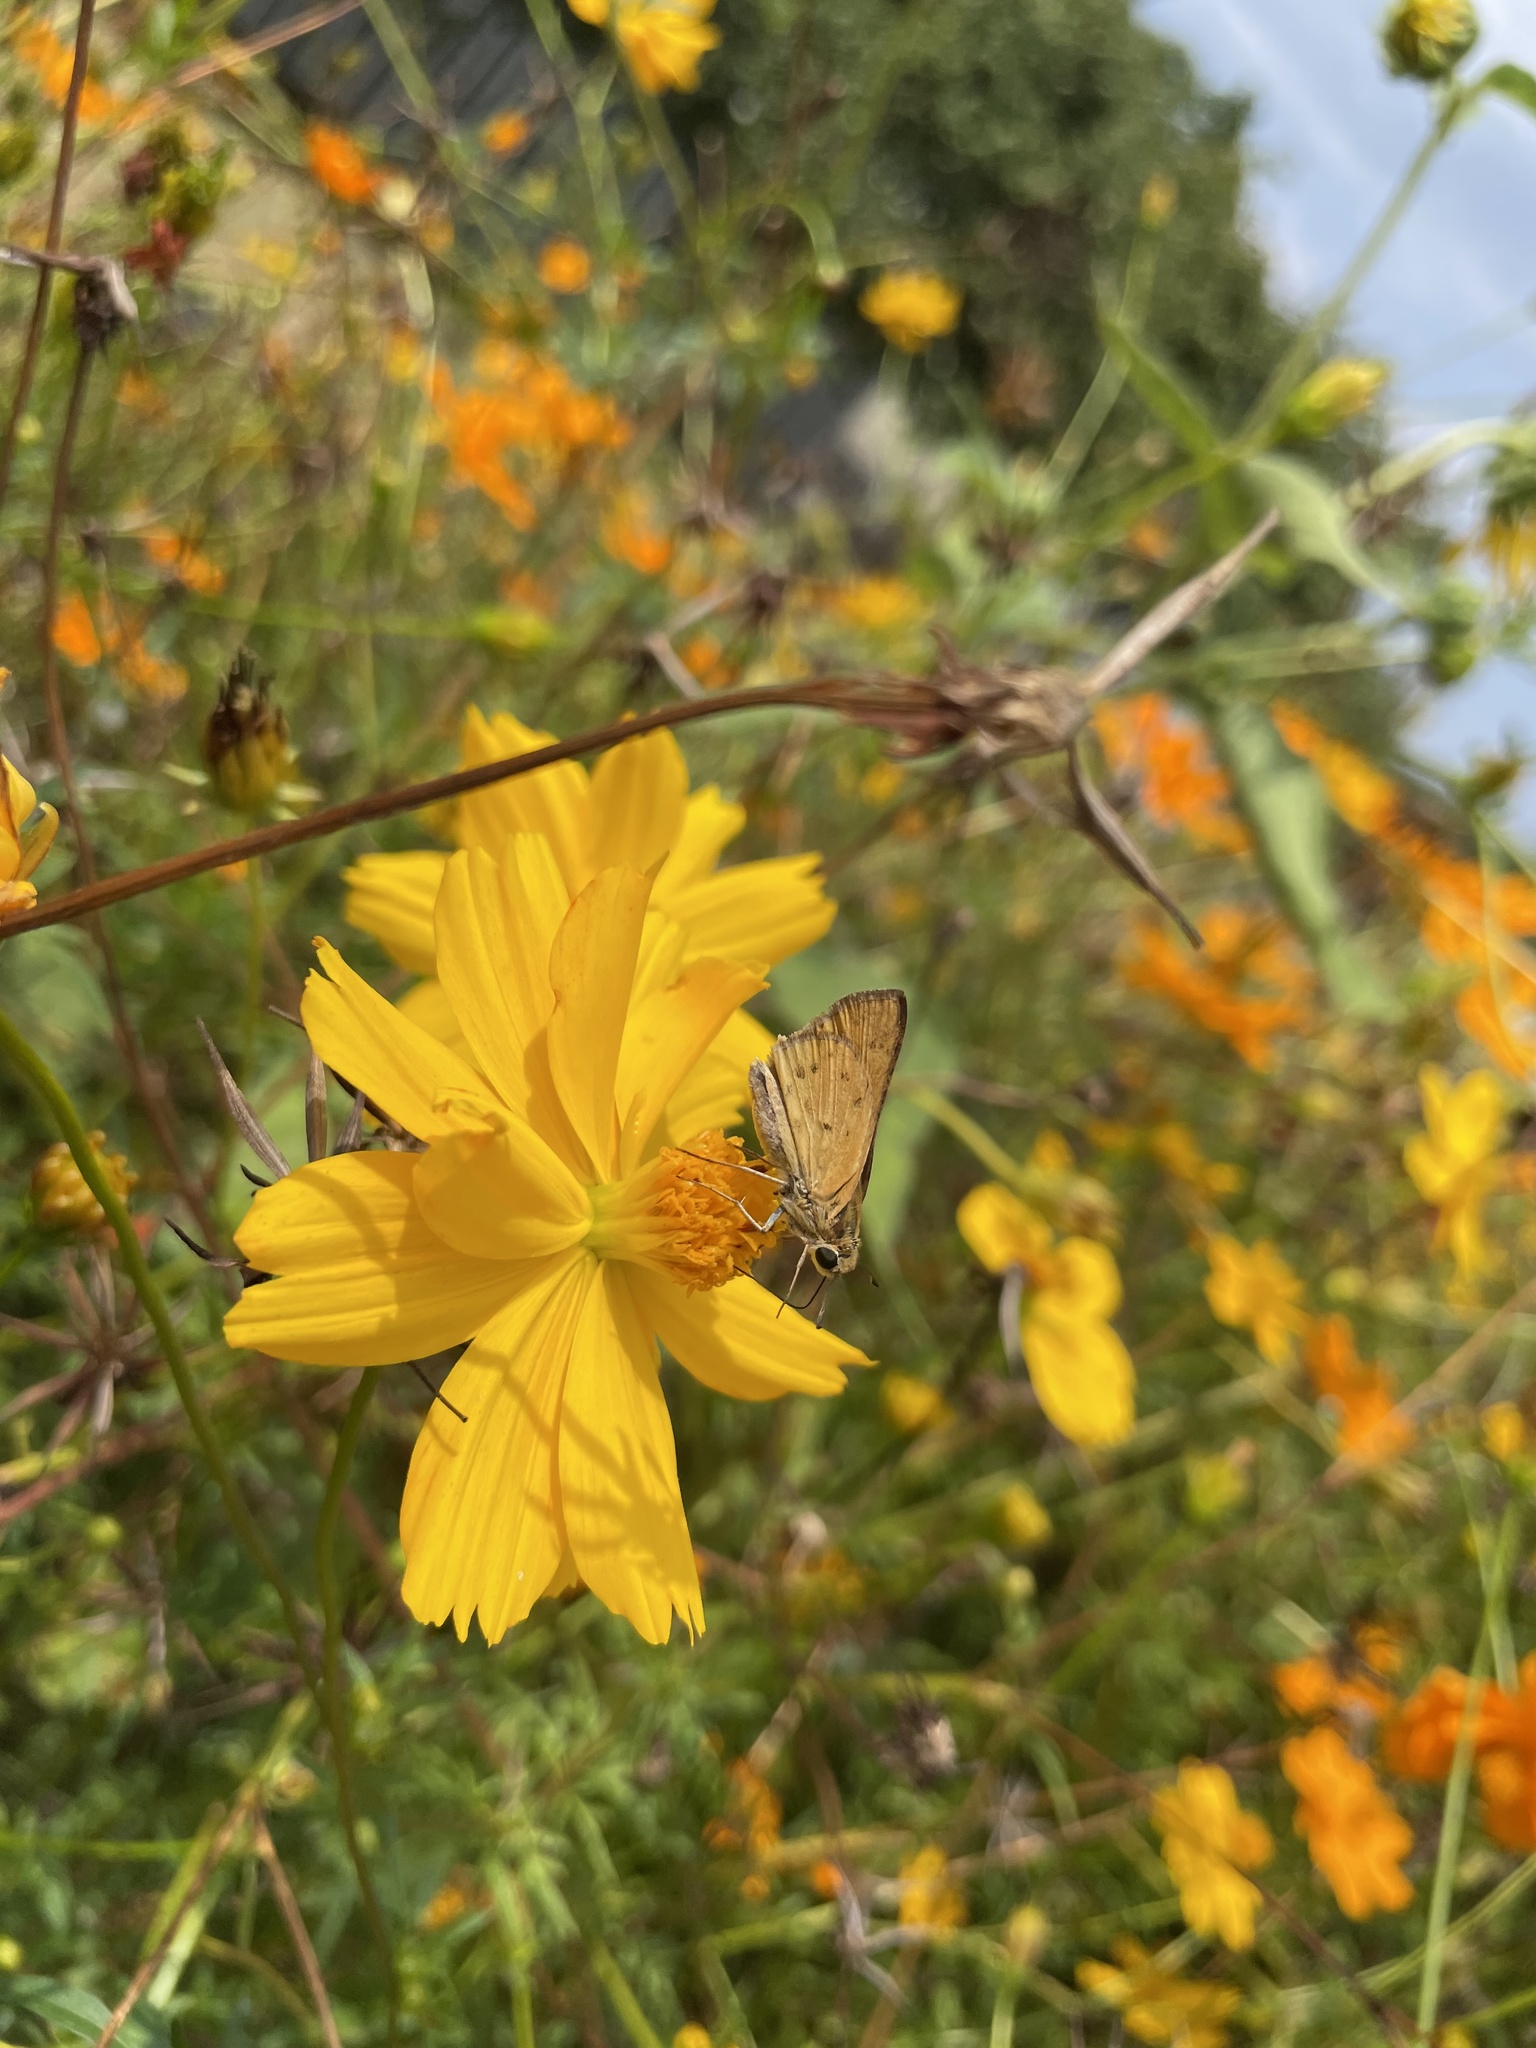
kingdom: Animalia
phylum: Arthropoda
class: Insecta
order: Lepidoptera
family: Hesperiidae
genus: Hylephila
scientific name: Hylephila phyleus
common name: Fiery skipper
